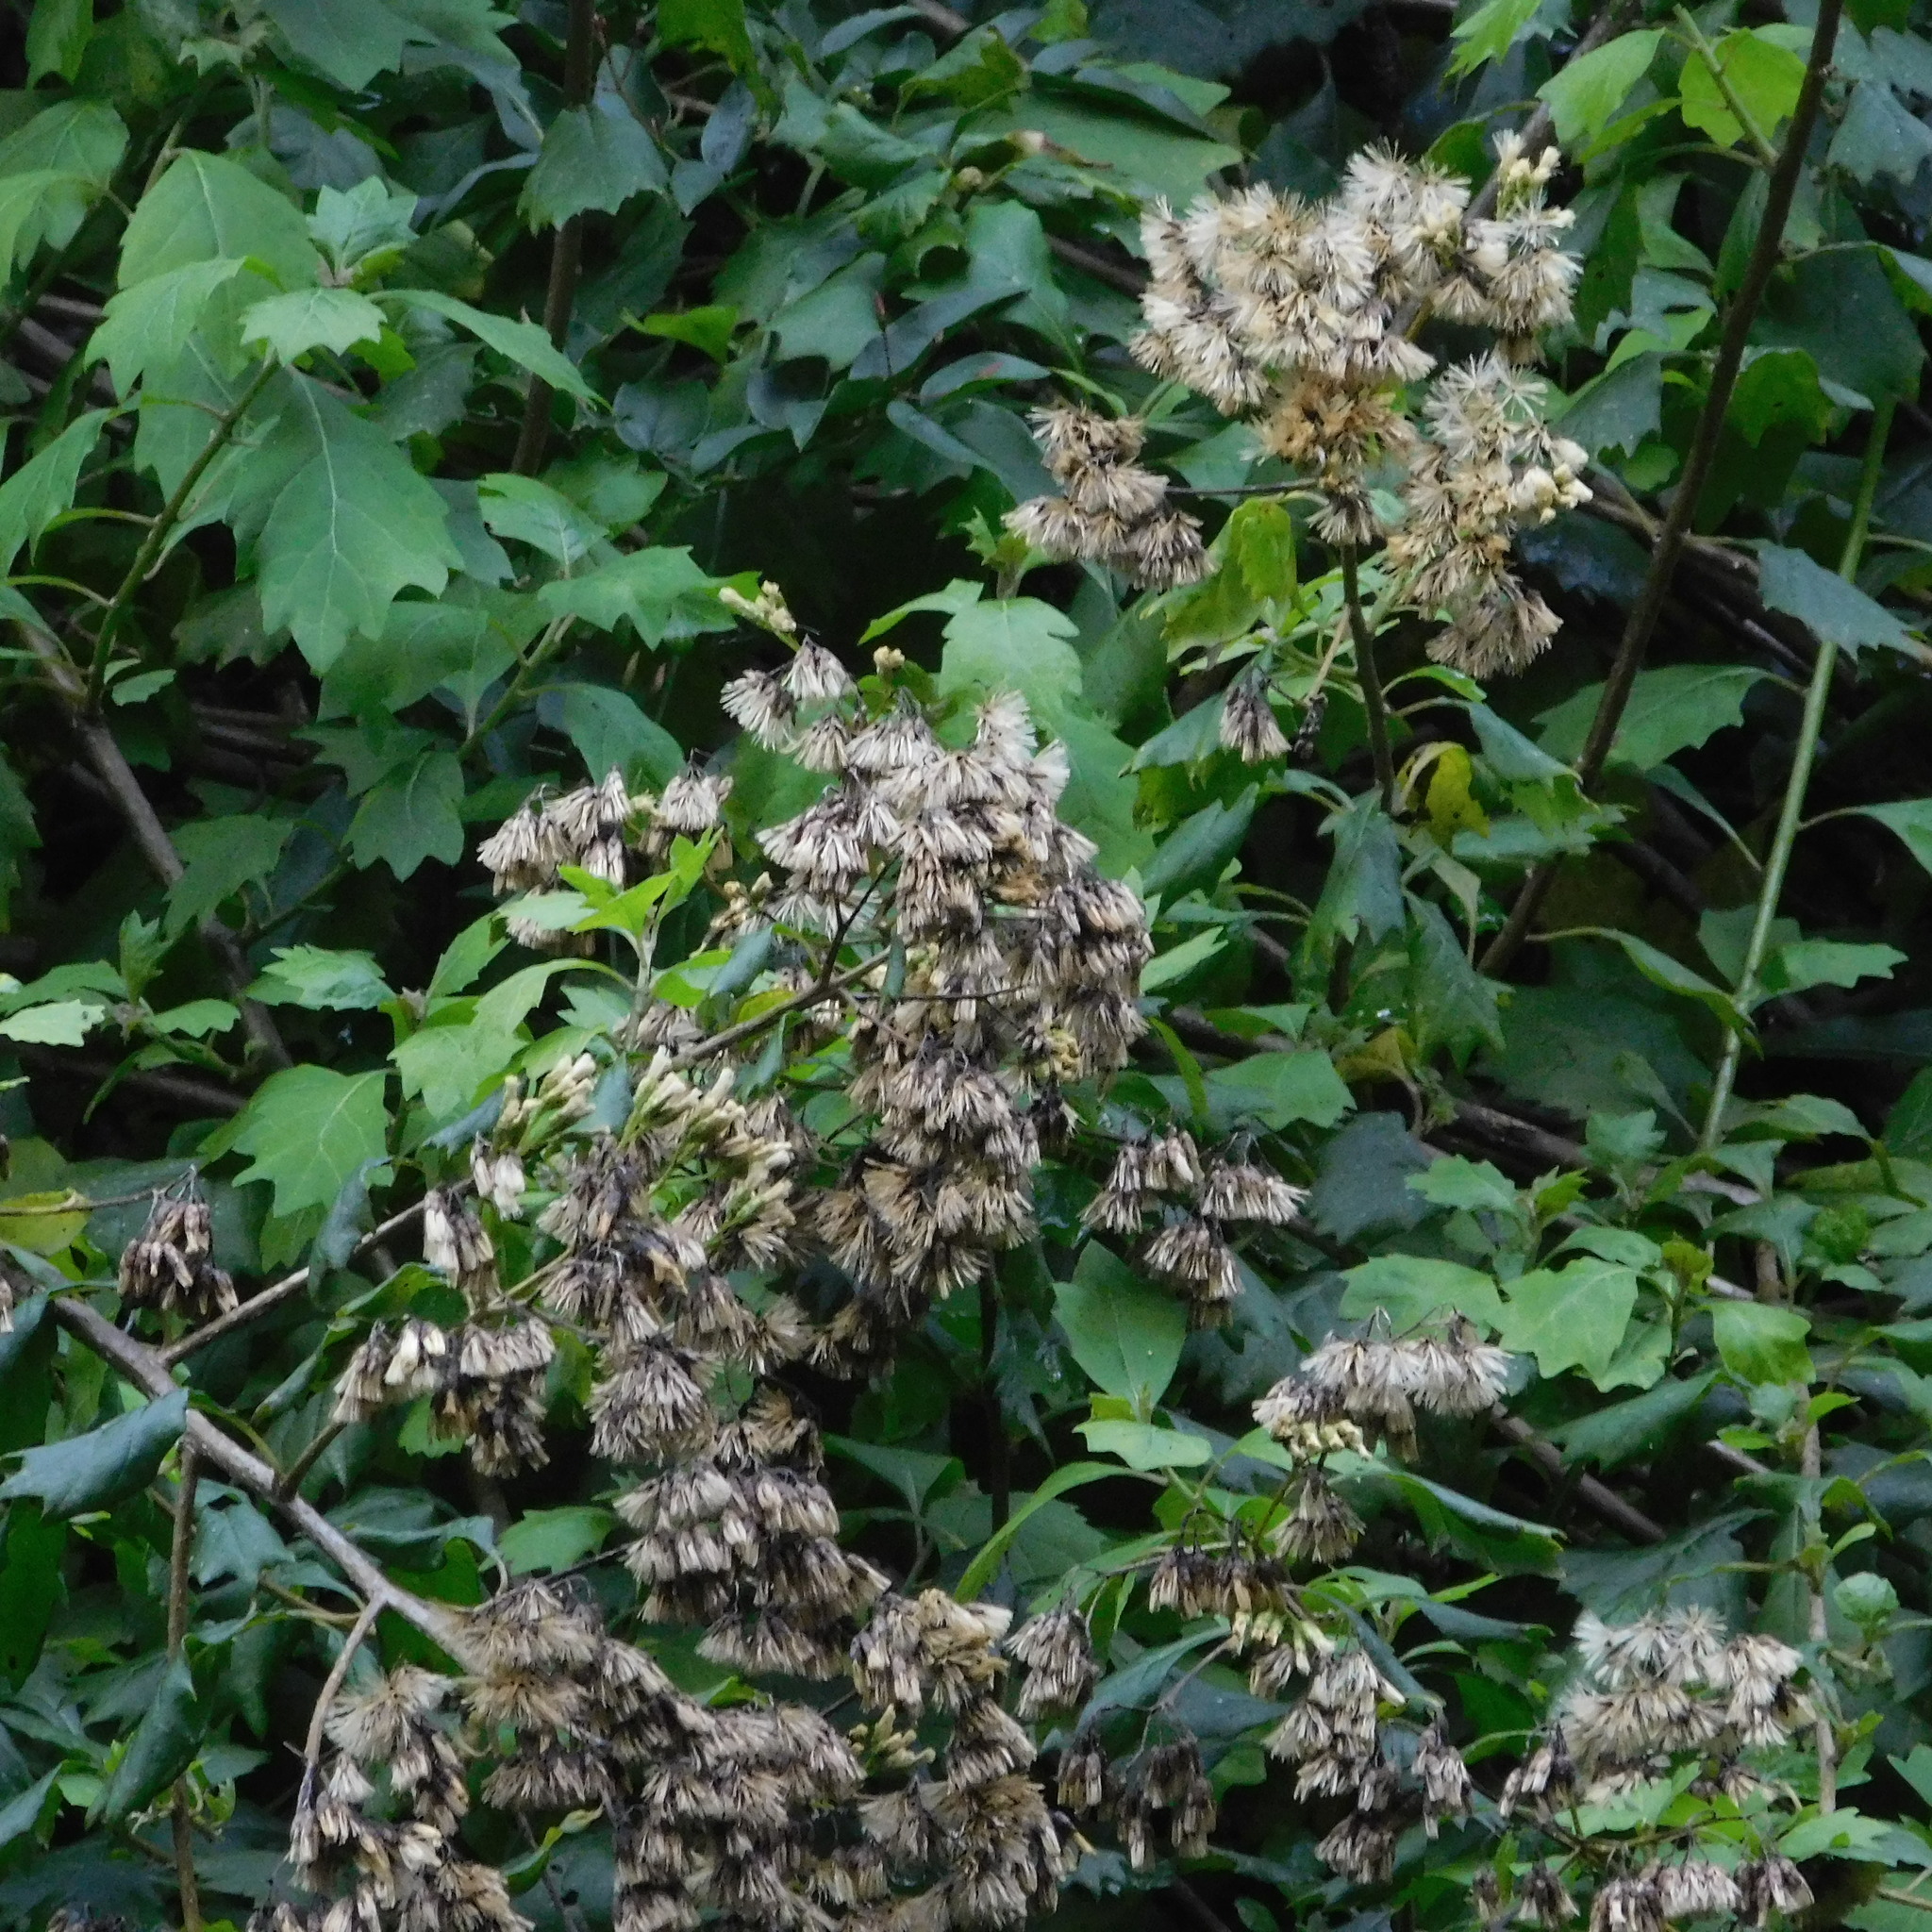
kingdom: Plantae
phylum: Tracheophyta
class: Magnoliopsida
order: Asterales
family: Asteraceae
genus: Gymnanthemum
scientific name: Gymnanthemum capense
